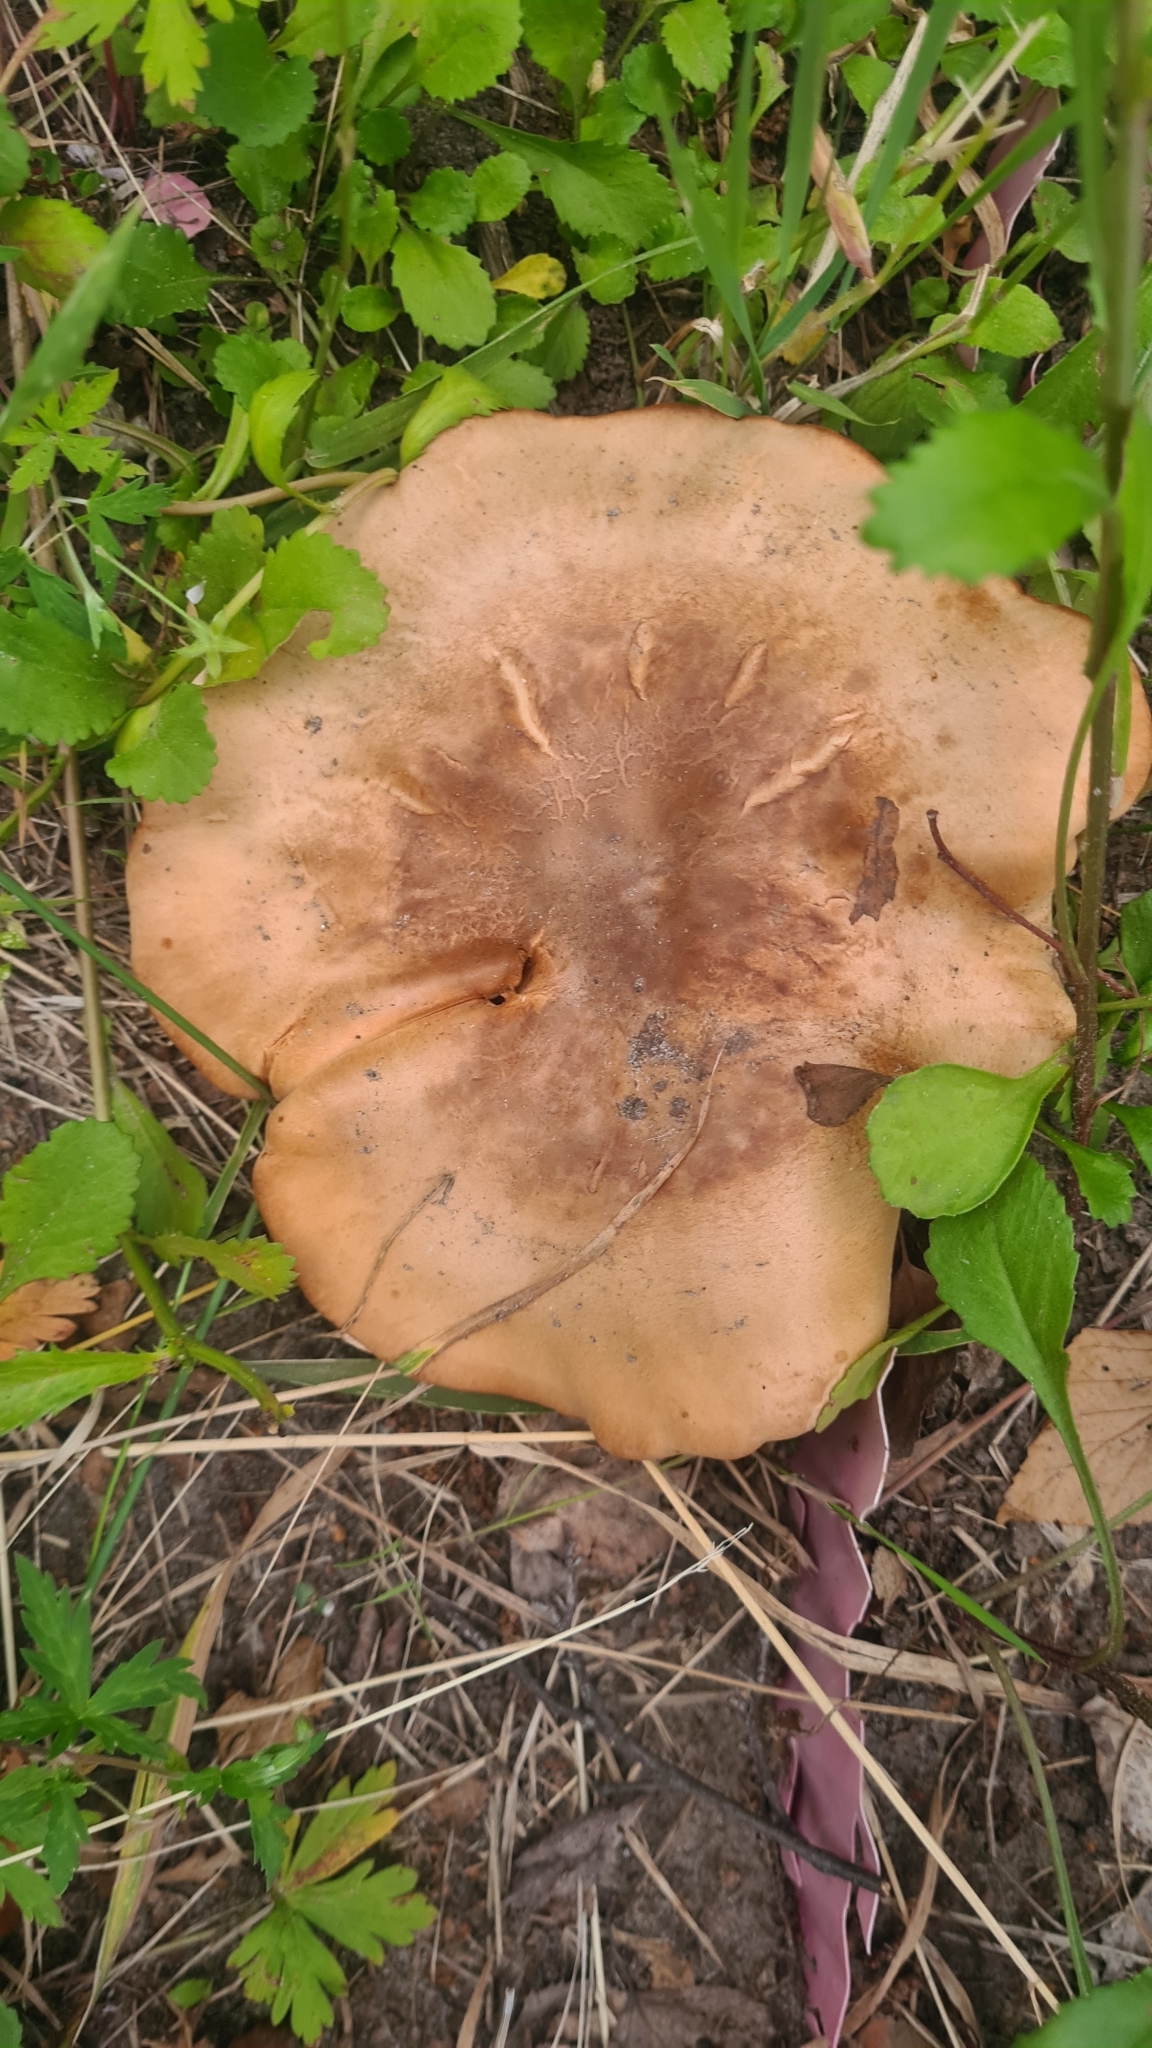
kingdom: Fungi
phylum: Basidiomycota
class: Agaricomycetes
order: Boletales
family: Paxillaceae
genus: Paxillus
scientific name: Paxillus involutus
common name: Brown roll rim
